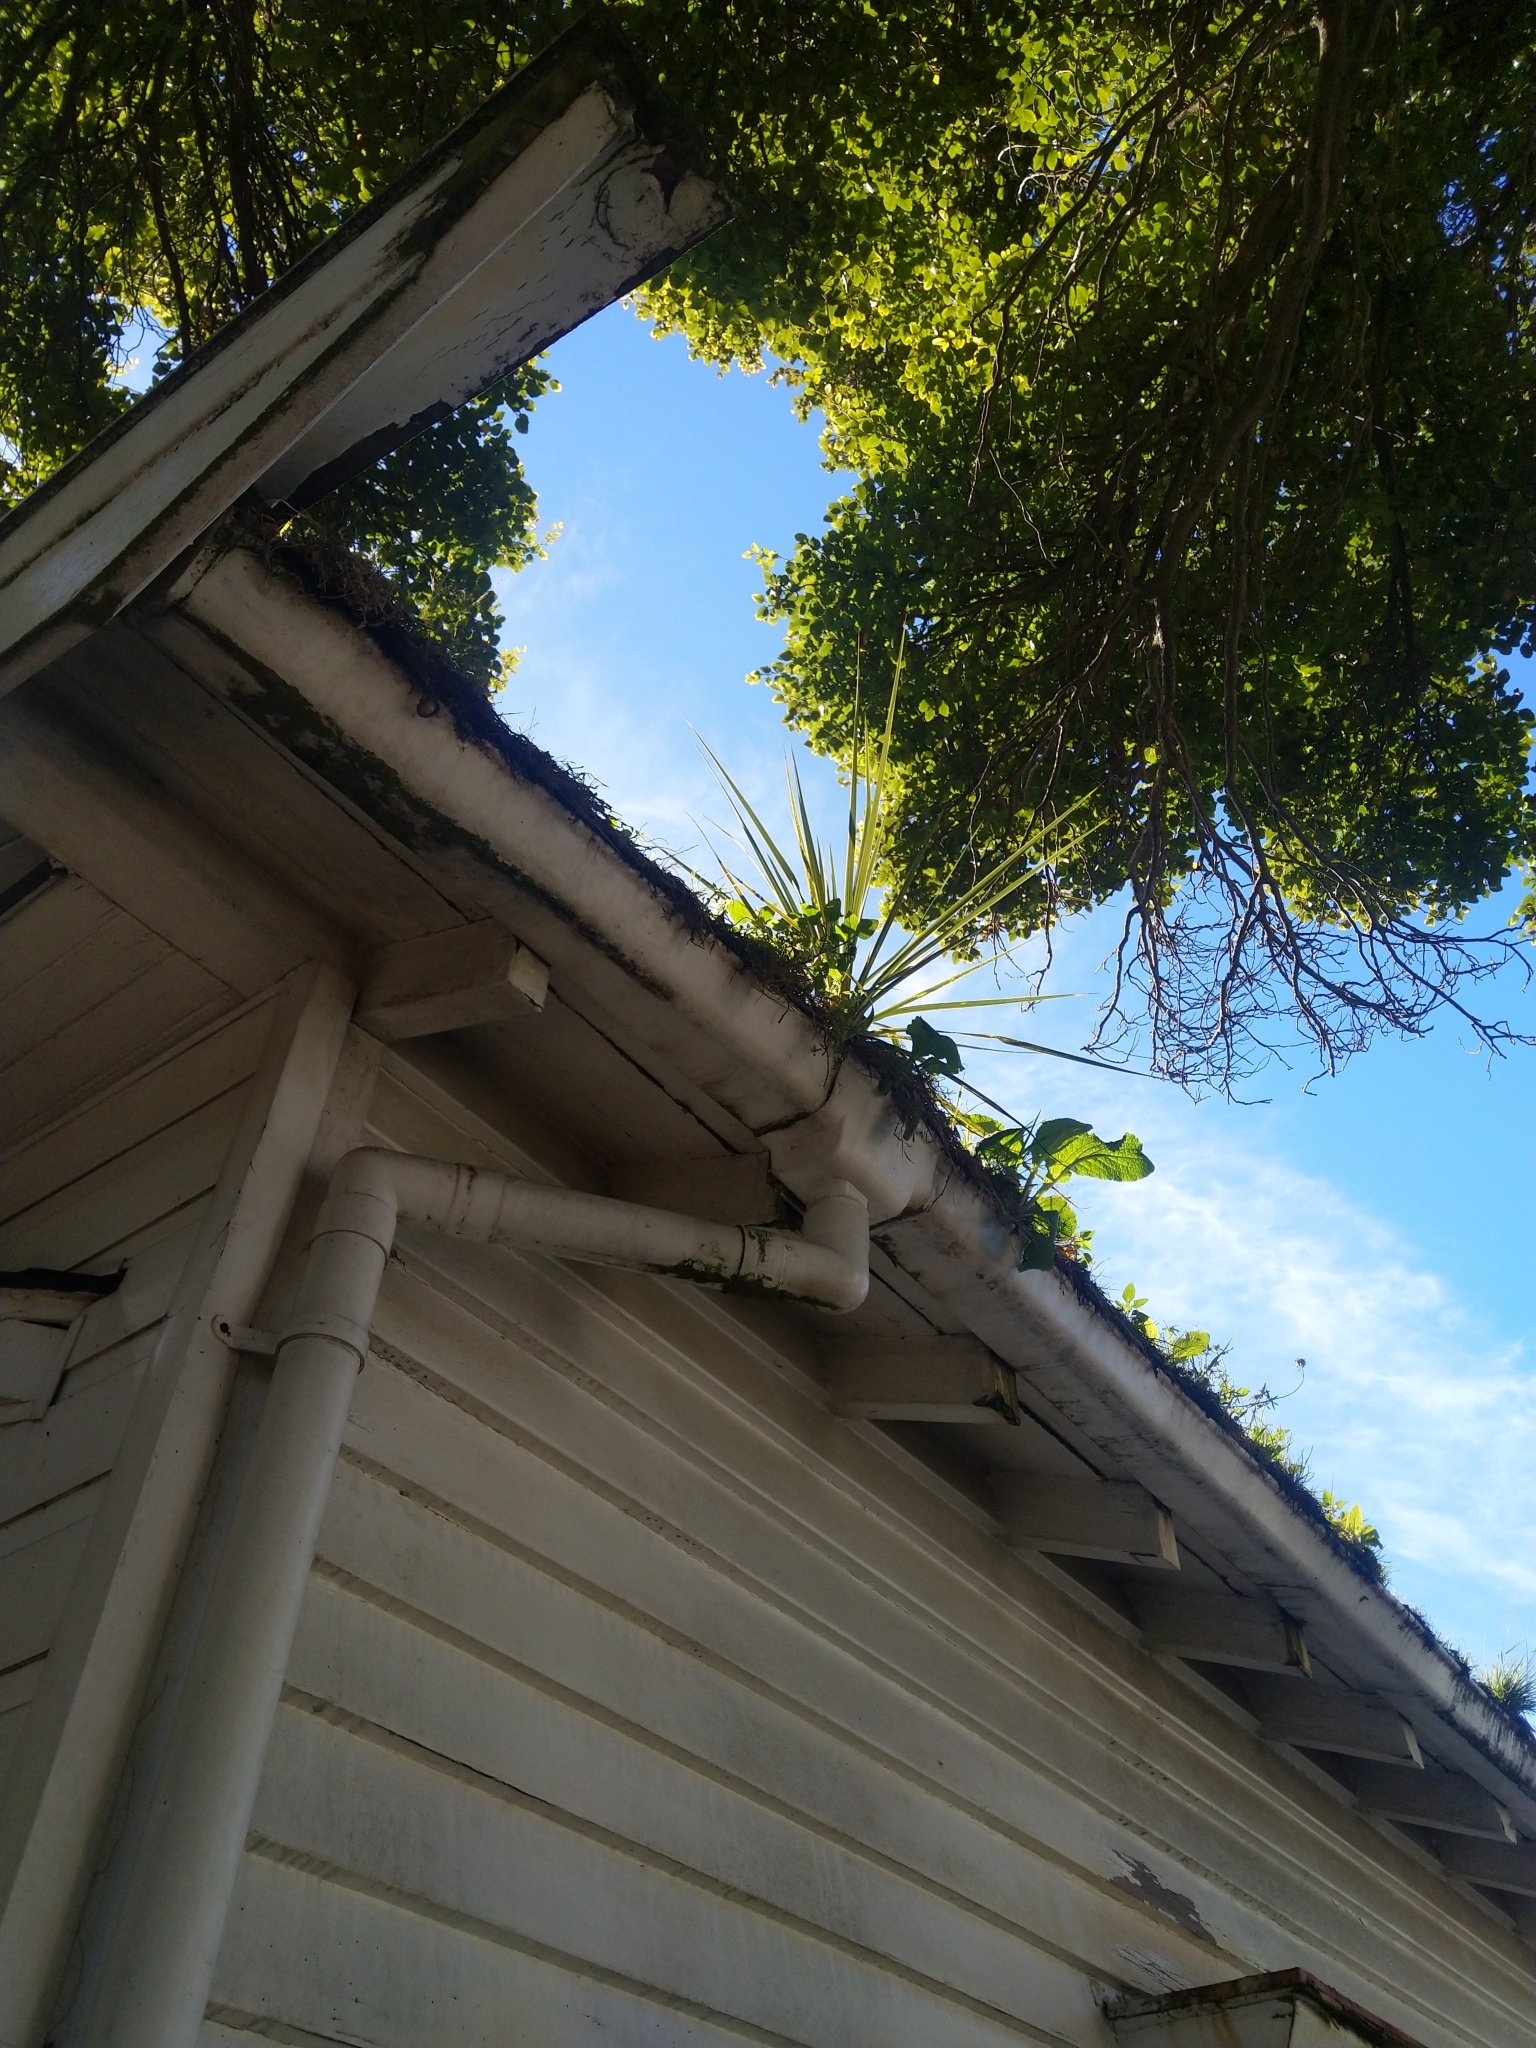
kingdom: Plantae
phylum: Tracheophyta
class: Liliopsida
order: Asparagales
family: Asparagaceae
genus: Cordyline
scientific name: Cordyline australis
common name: Cabbage-palm
